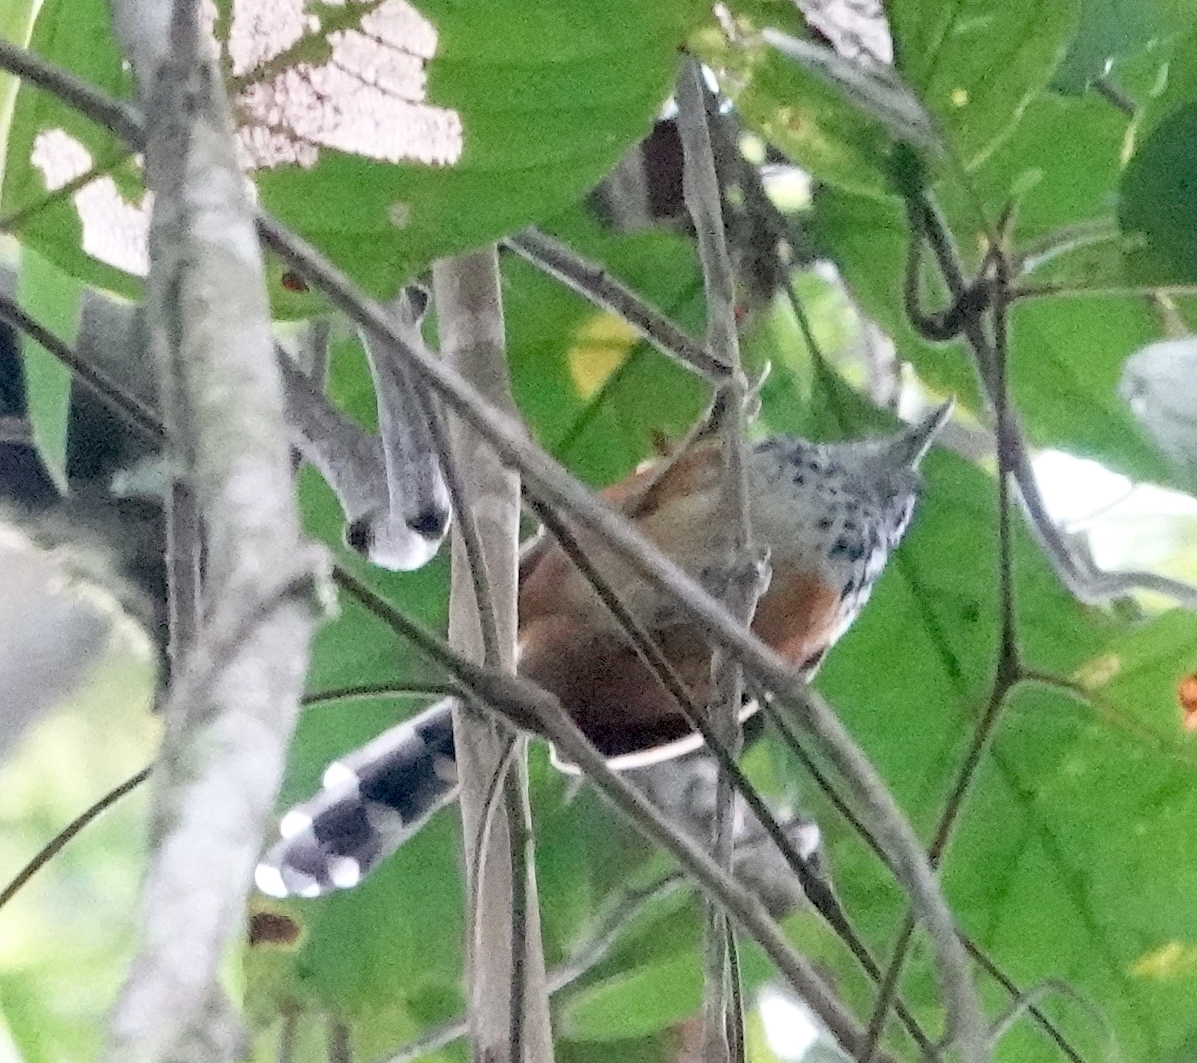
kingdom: Animalia
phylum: Chordata
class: Aves
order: Passeriformes
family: Thamnophilidae
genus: Drymophila
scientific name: Drymophila caudata
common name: Long-tailed antbird
